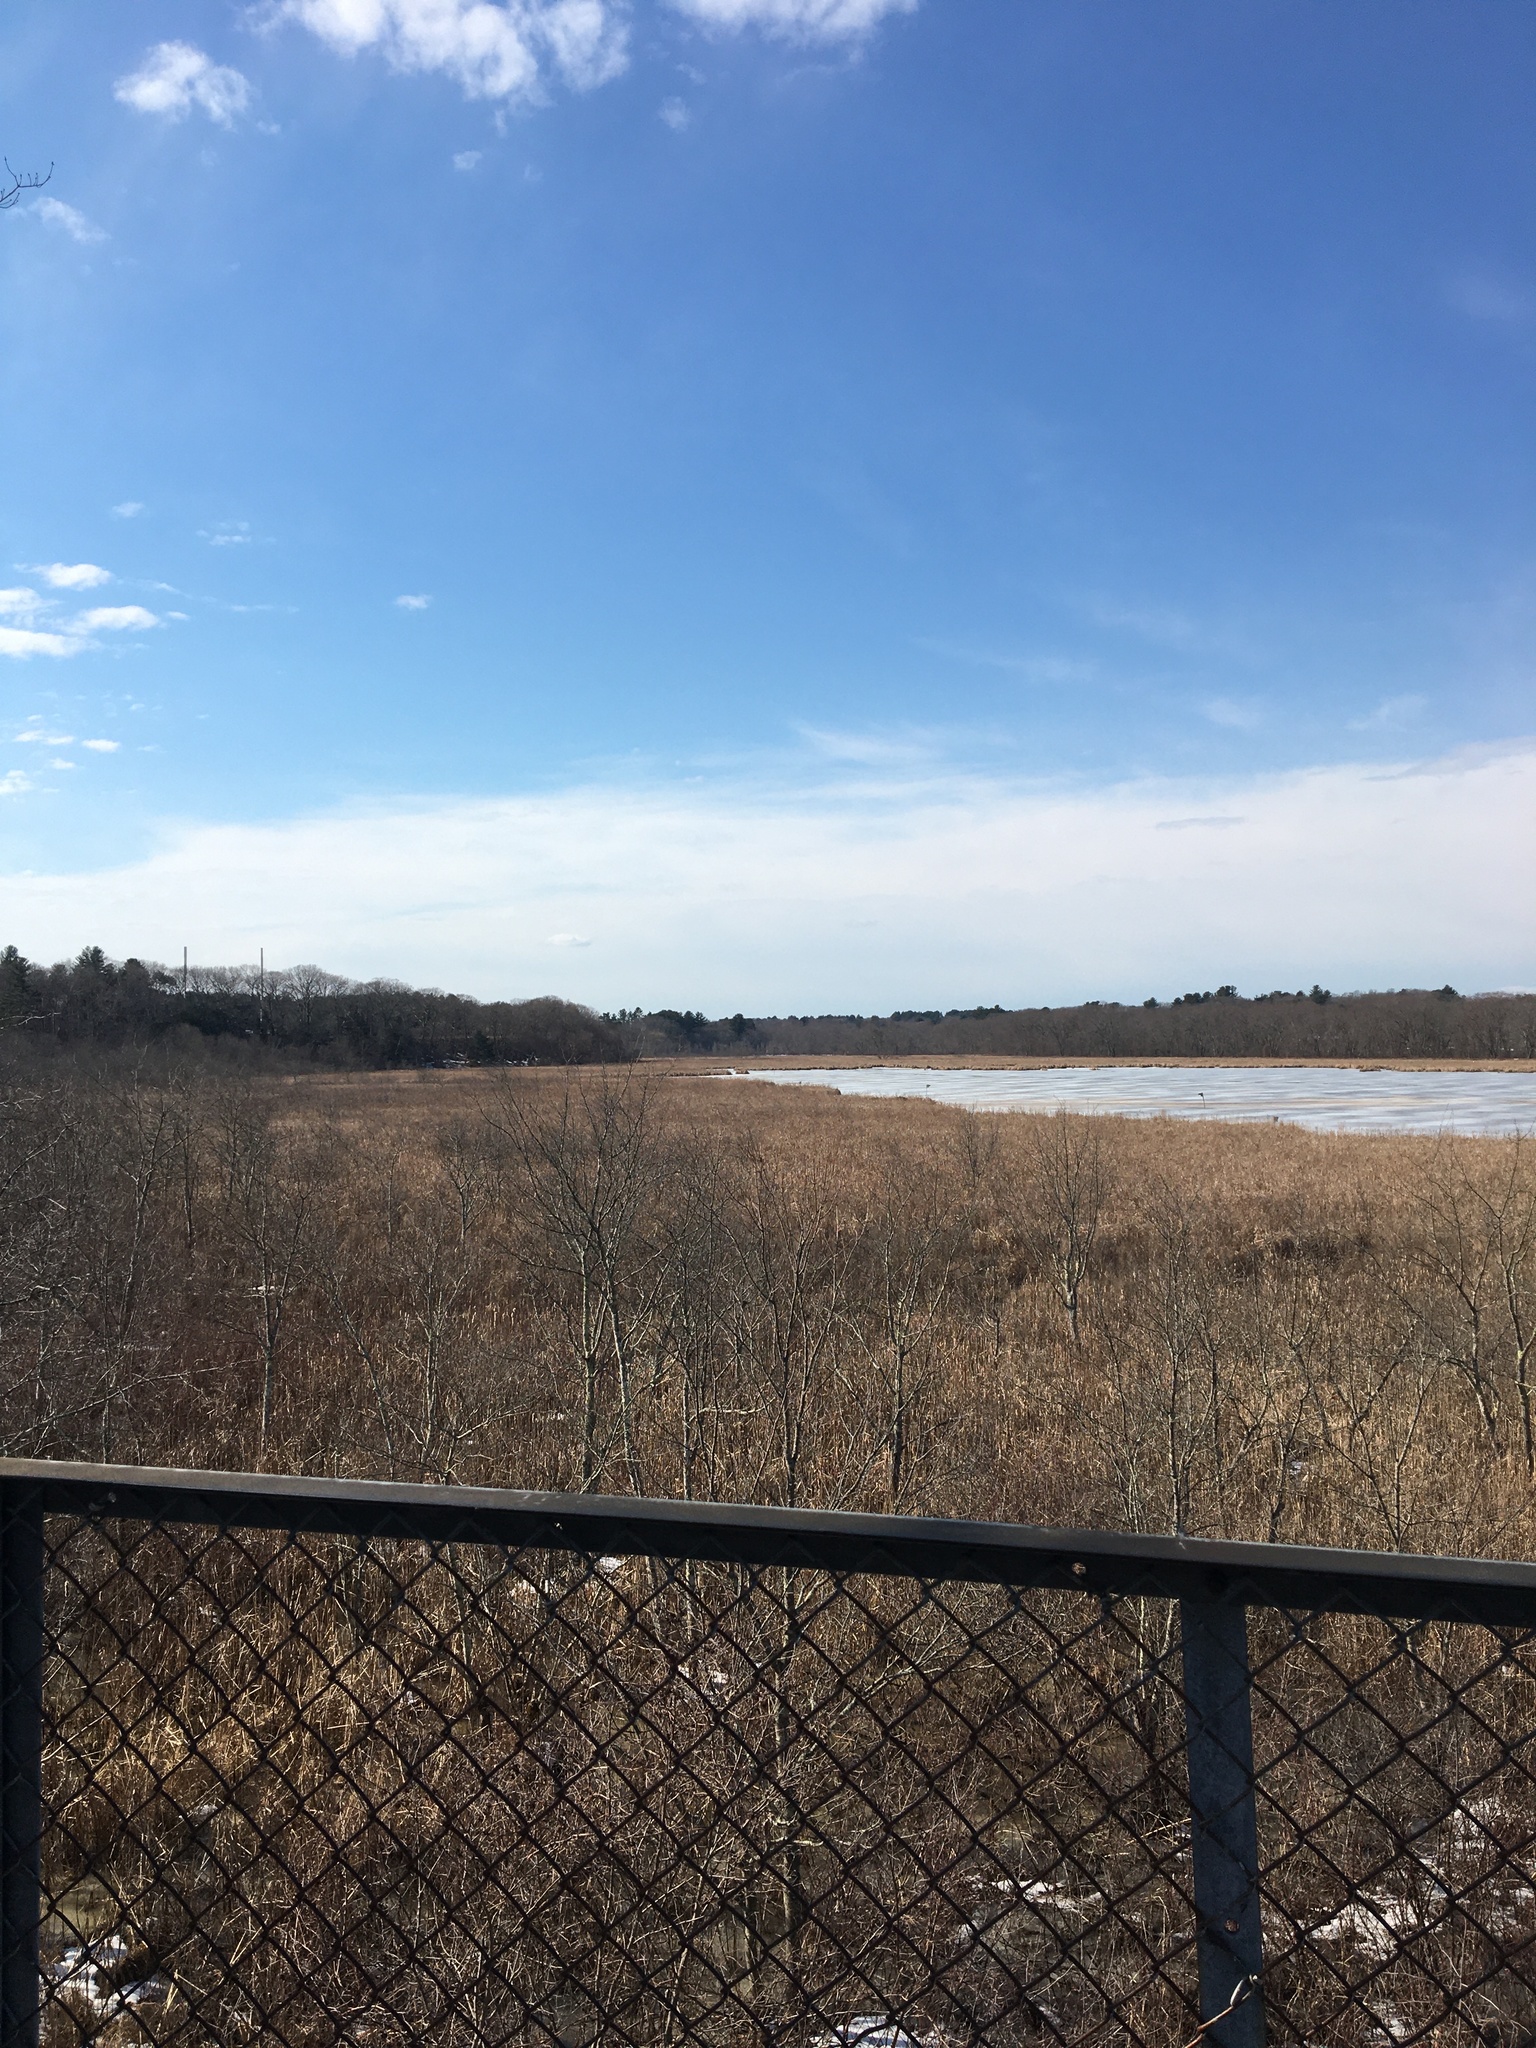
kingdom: Plantae
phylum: Tracheophyta
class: Liliopsida
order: Poales
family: Typhaceae
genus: Typha
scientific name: Typha
